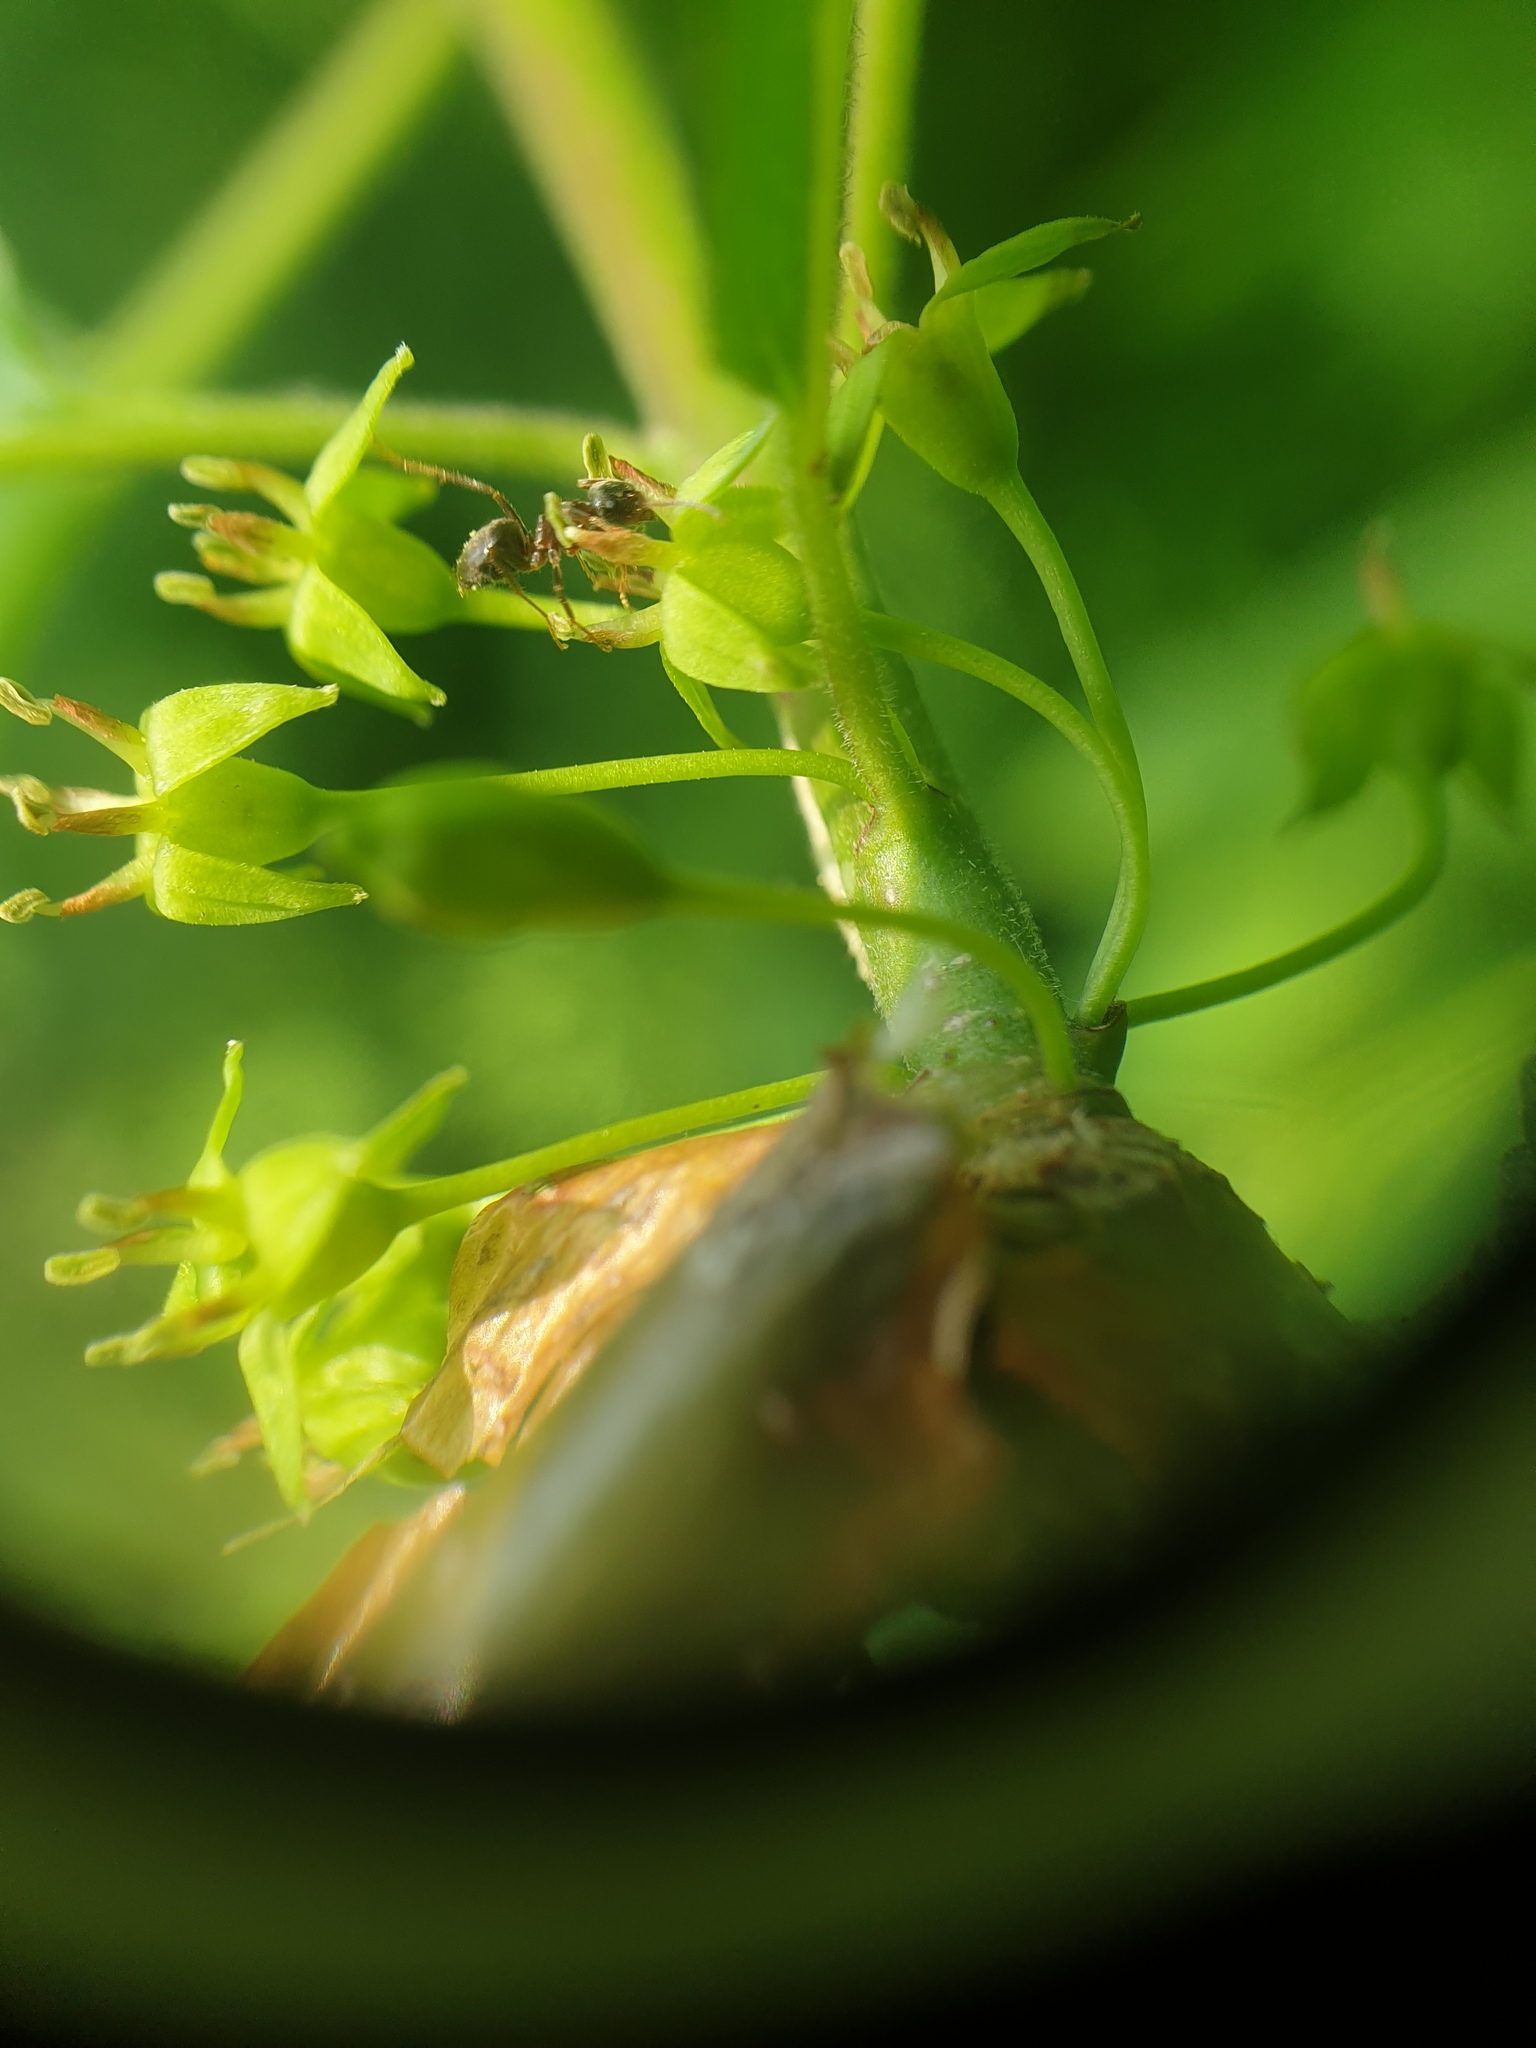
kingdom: Plantae
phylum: Tracheophyta
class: Magnoliopsida
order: Rosales
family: Rhamnaceae
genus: Rhamnus
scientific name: Rhamnus cathartica
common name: Common buckthorn
